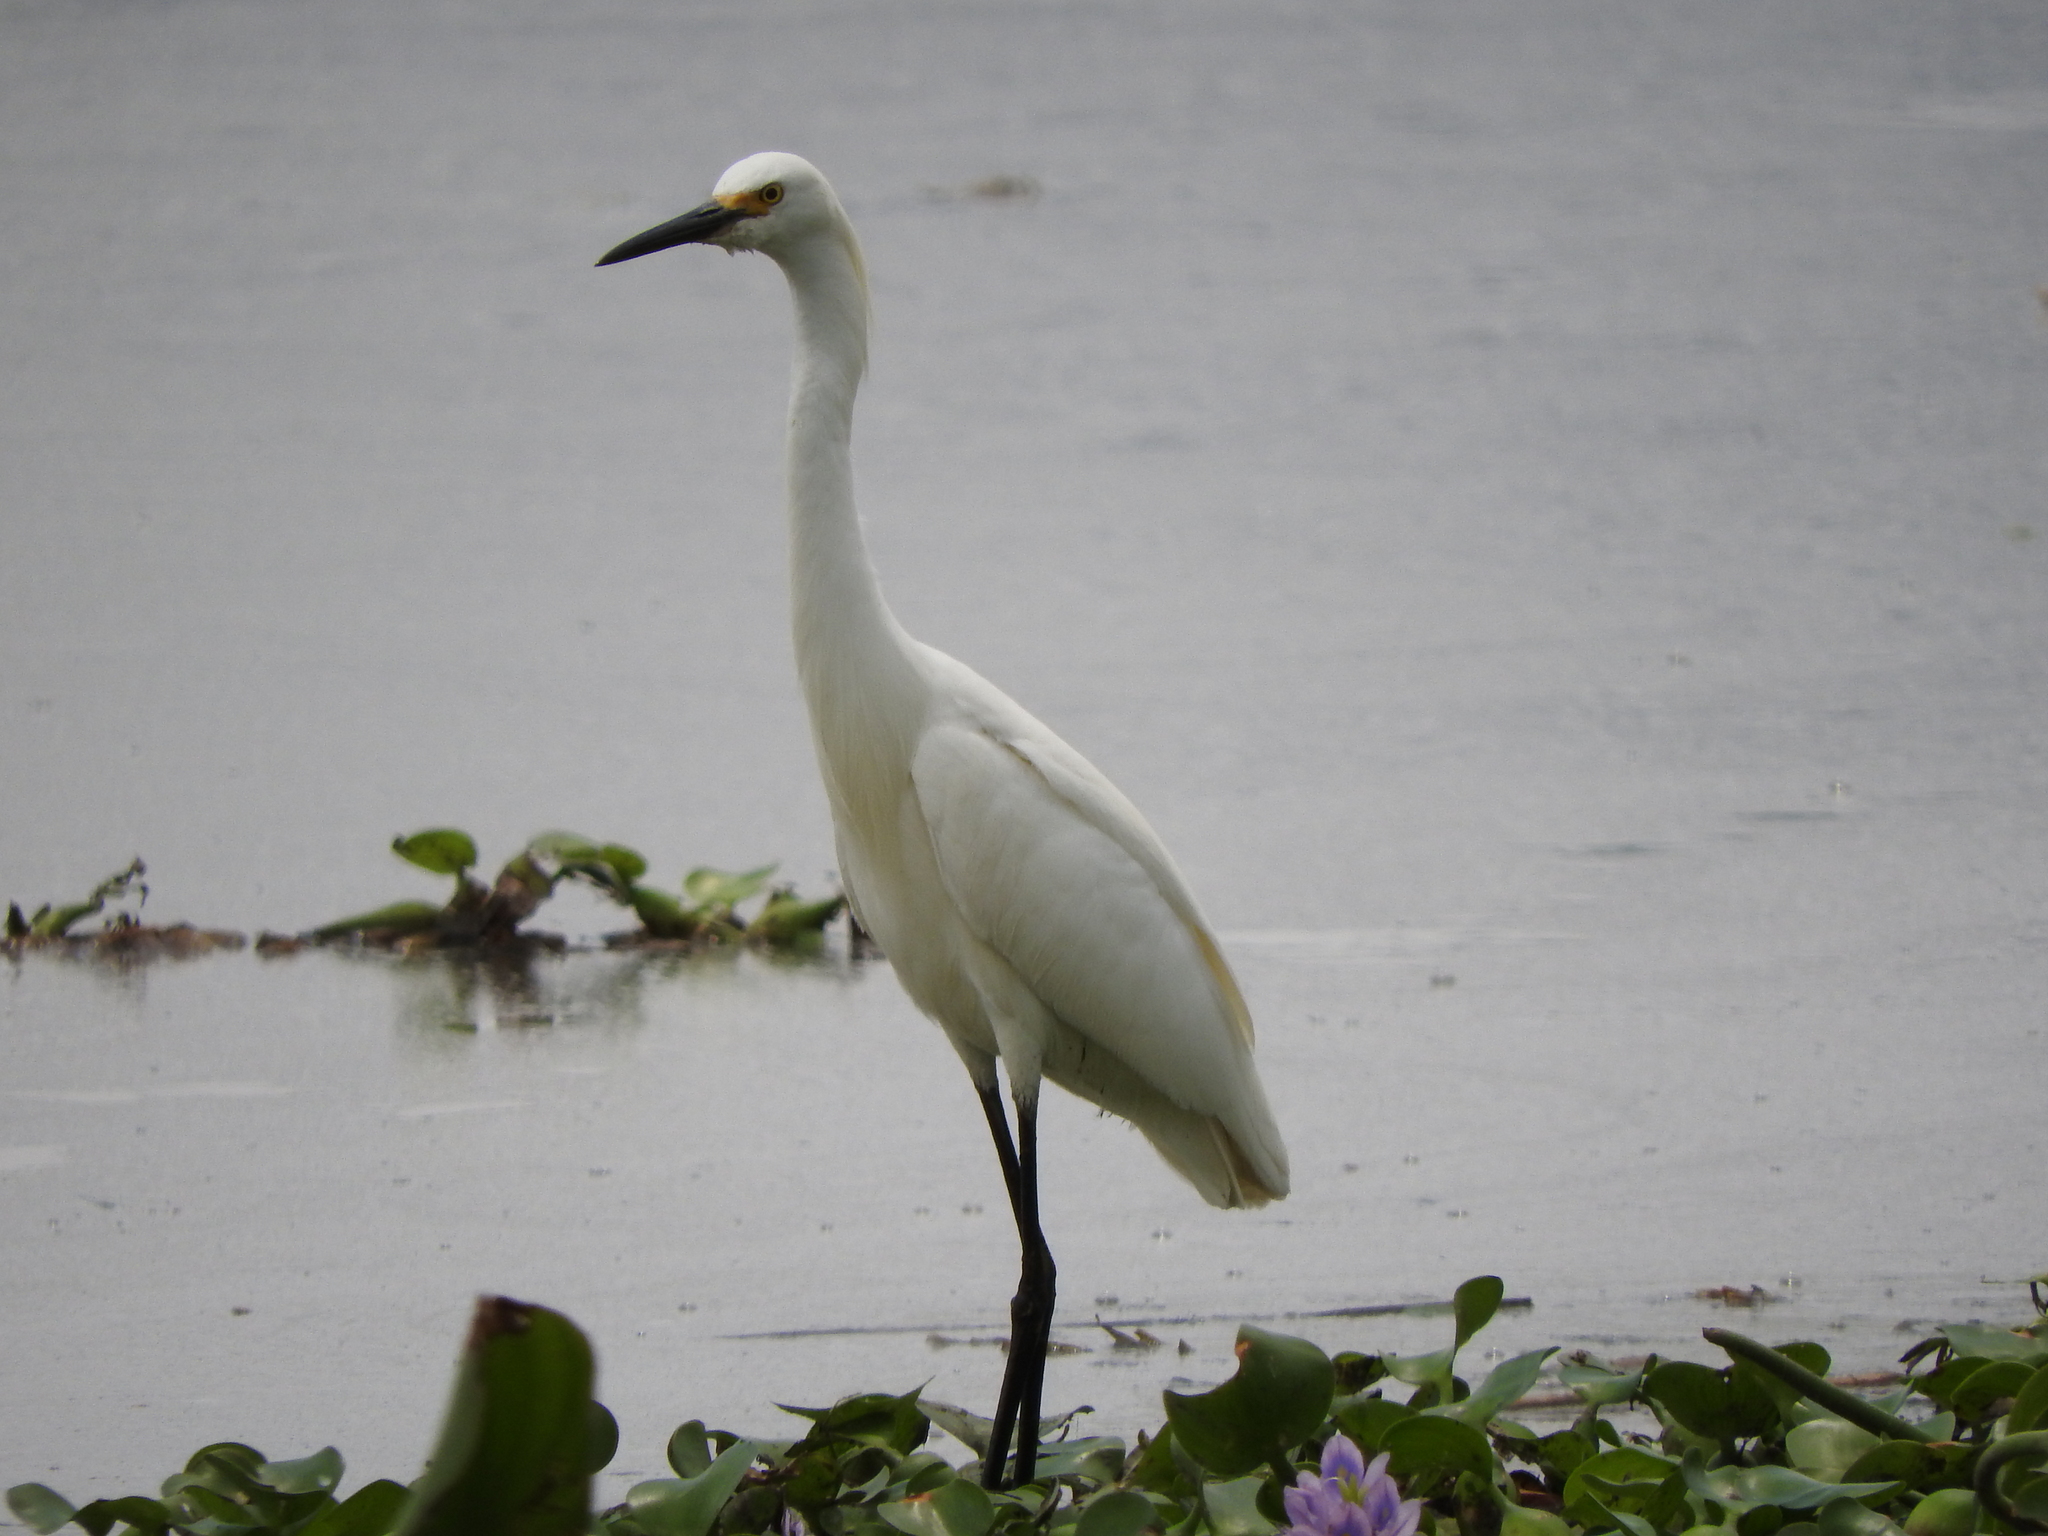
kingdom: Animalia
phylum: Chordata
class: Aves
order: Pelecaniformes
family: Ardeidae
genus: Egretta
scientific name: Egretta thula
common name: Snowy egret
